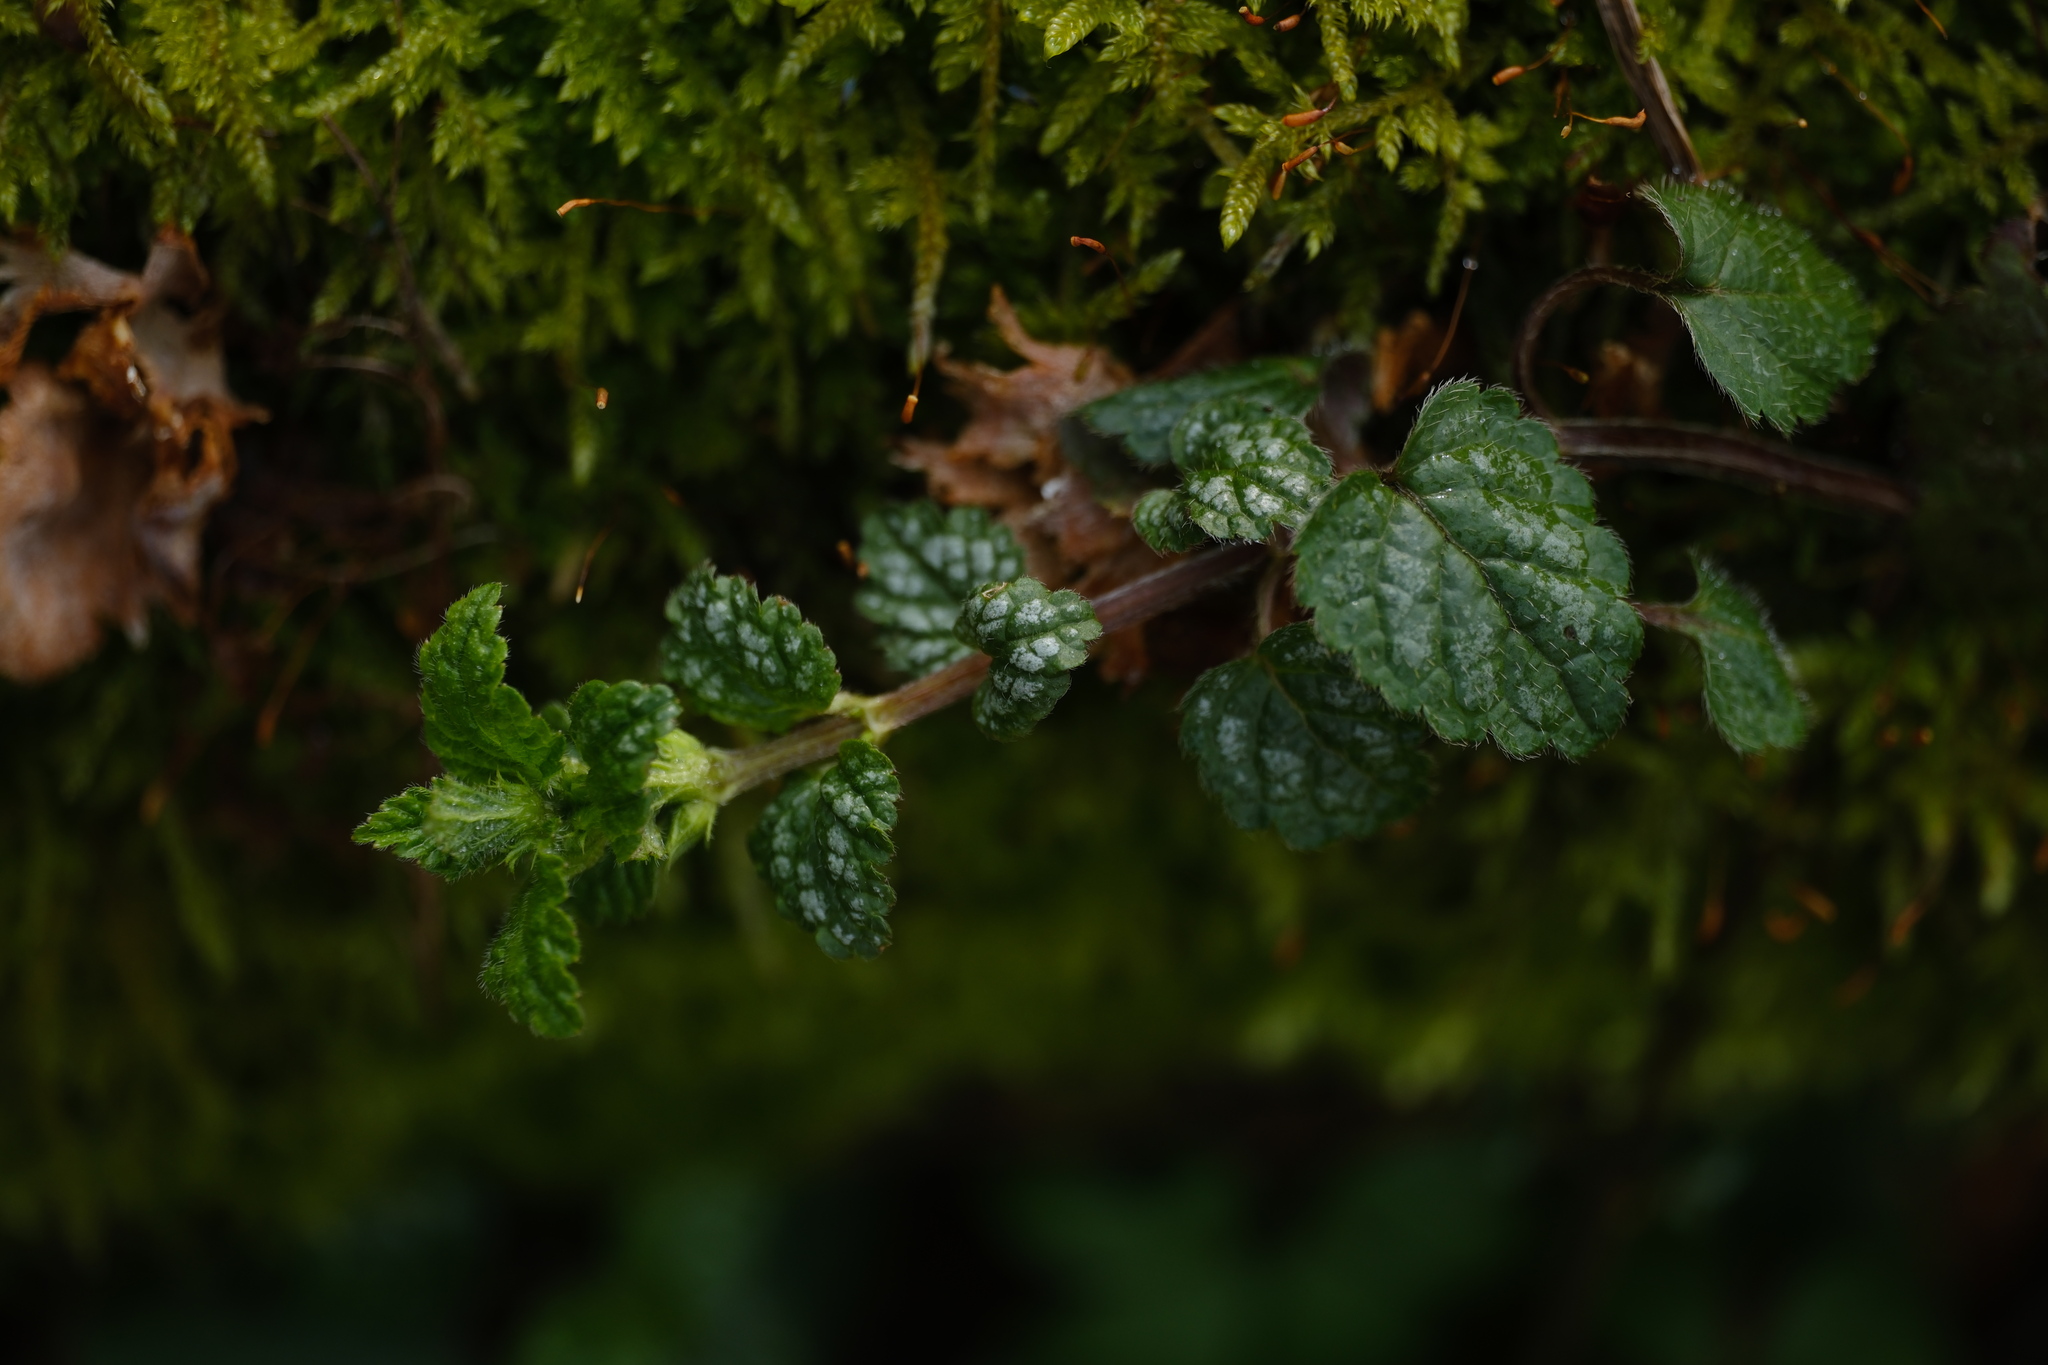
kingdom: Plantae
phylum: Tracheophyta
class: Magnoliopsida
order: Lamiales
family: Lamiaceae
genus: Lamium
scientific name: Lamium galeobdolon
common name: Yellow archangel
